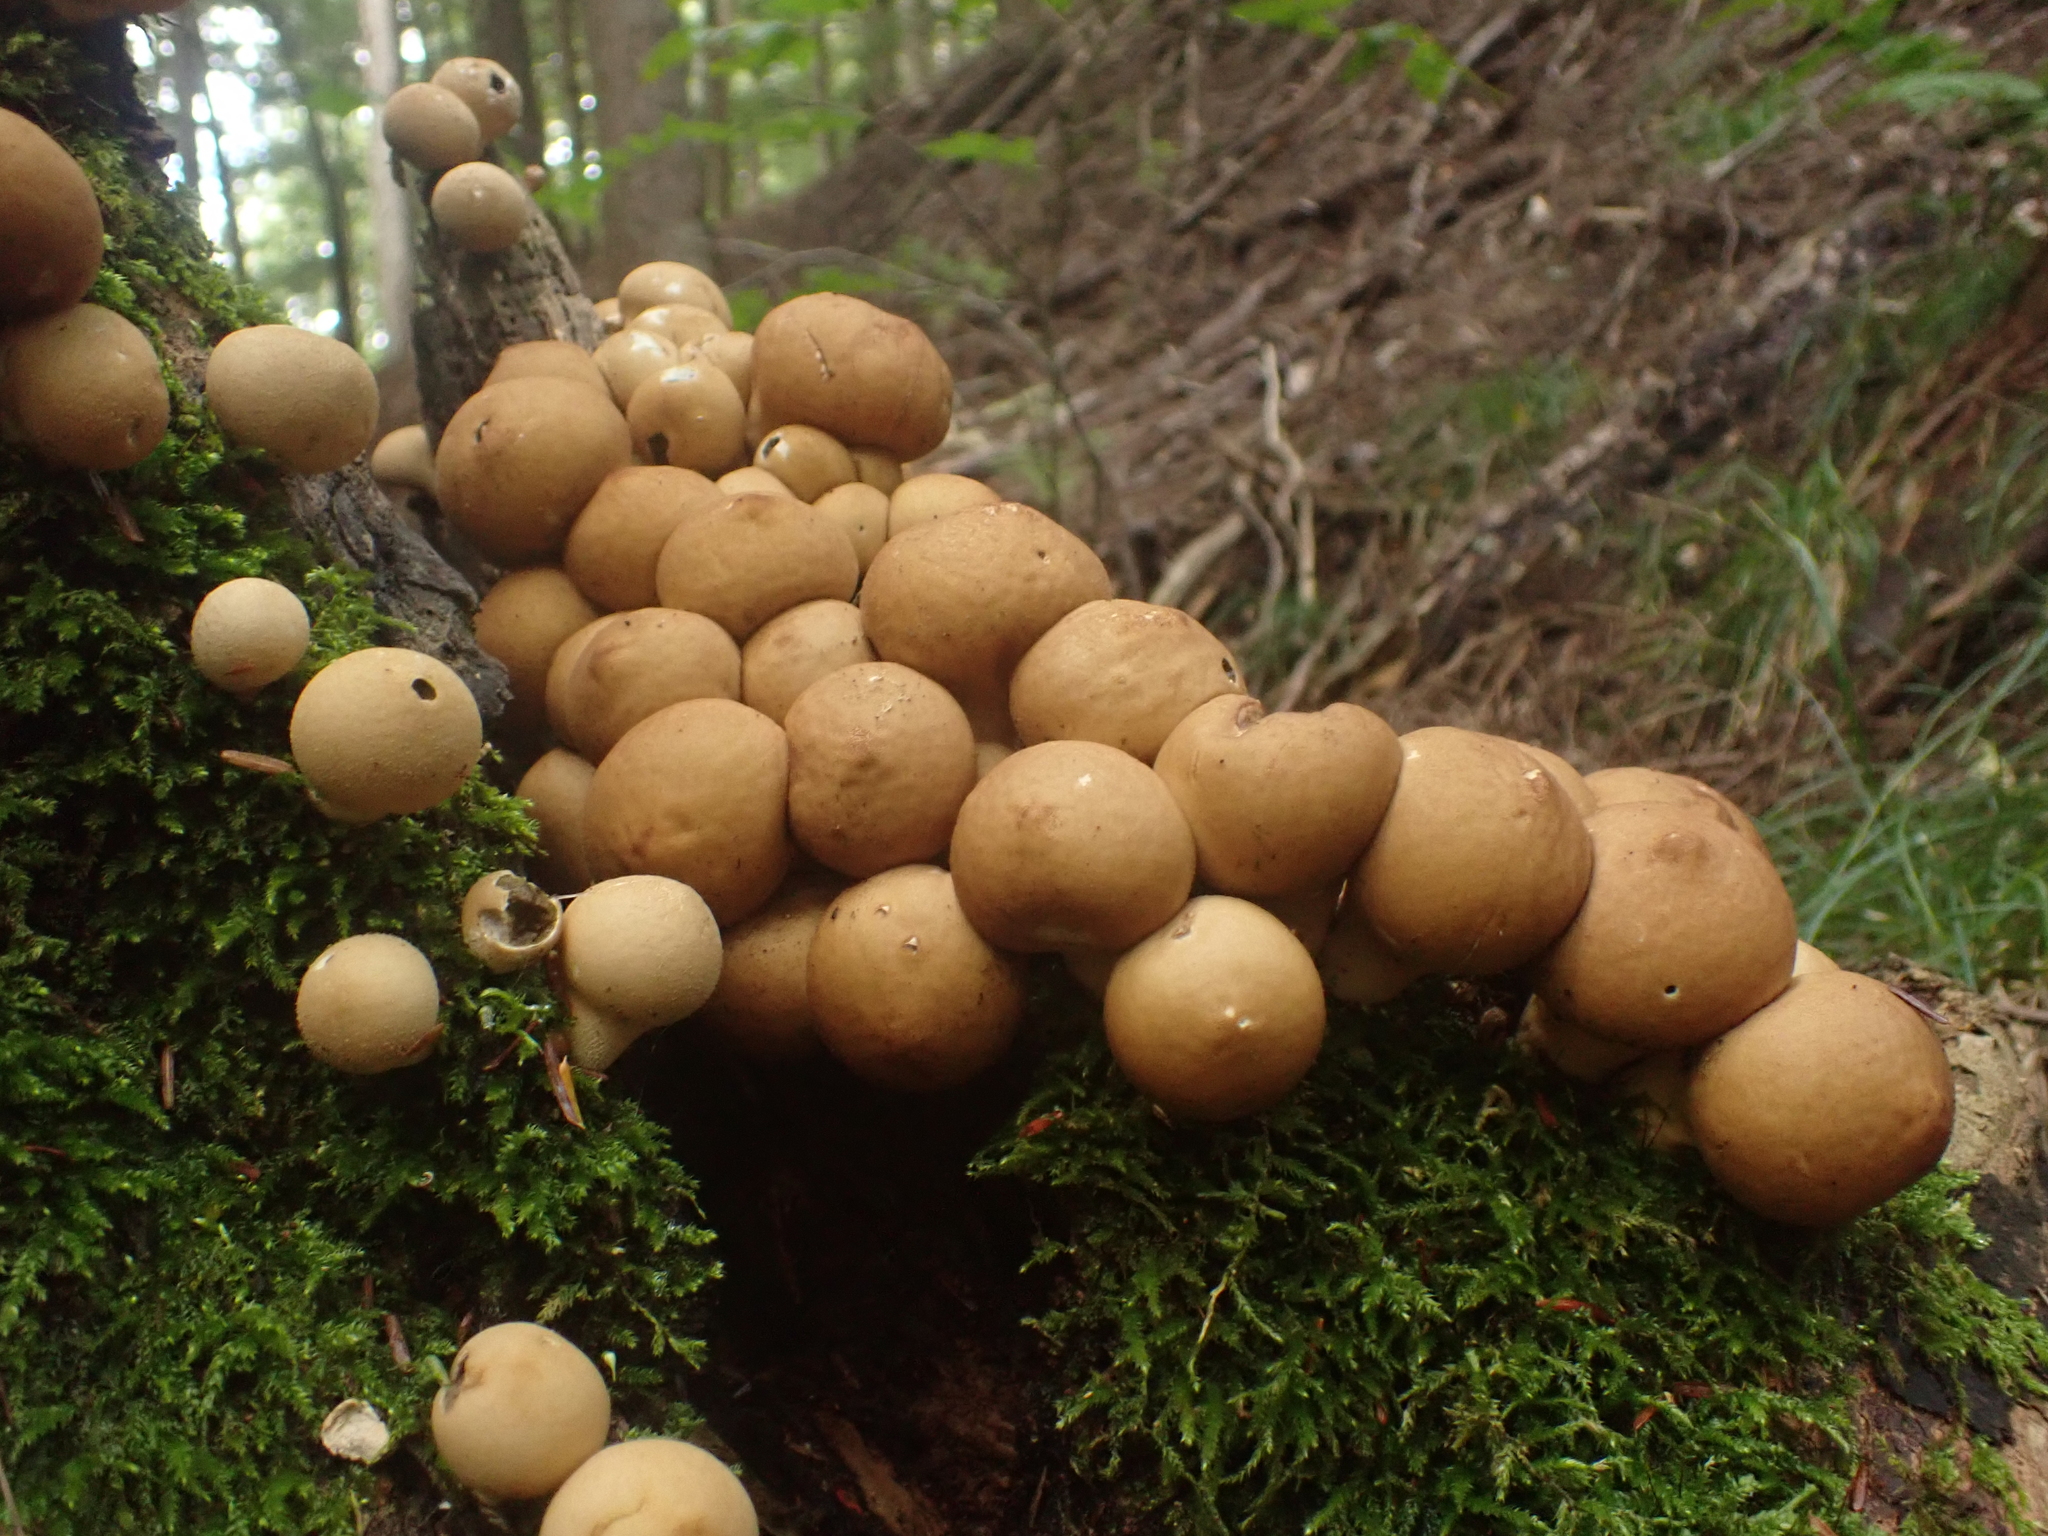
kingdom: Fungi
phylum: Basidiomycota
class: Agaricomycetes
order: Agaricales
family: Lycoperdaceae
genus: Apioperdon
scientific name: Apioperdon pyriforme
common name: Pear-shaped puffball
